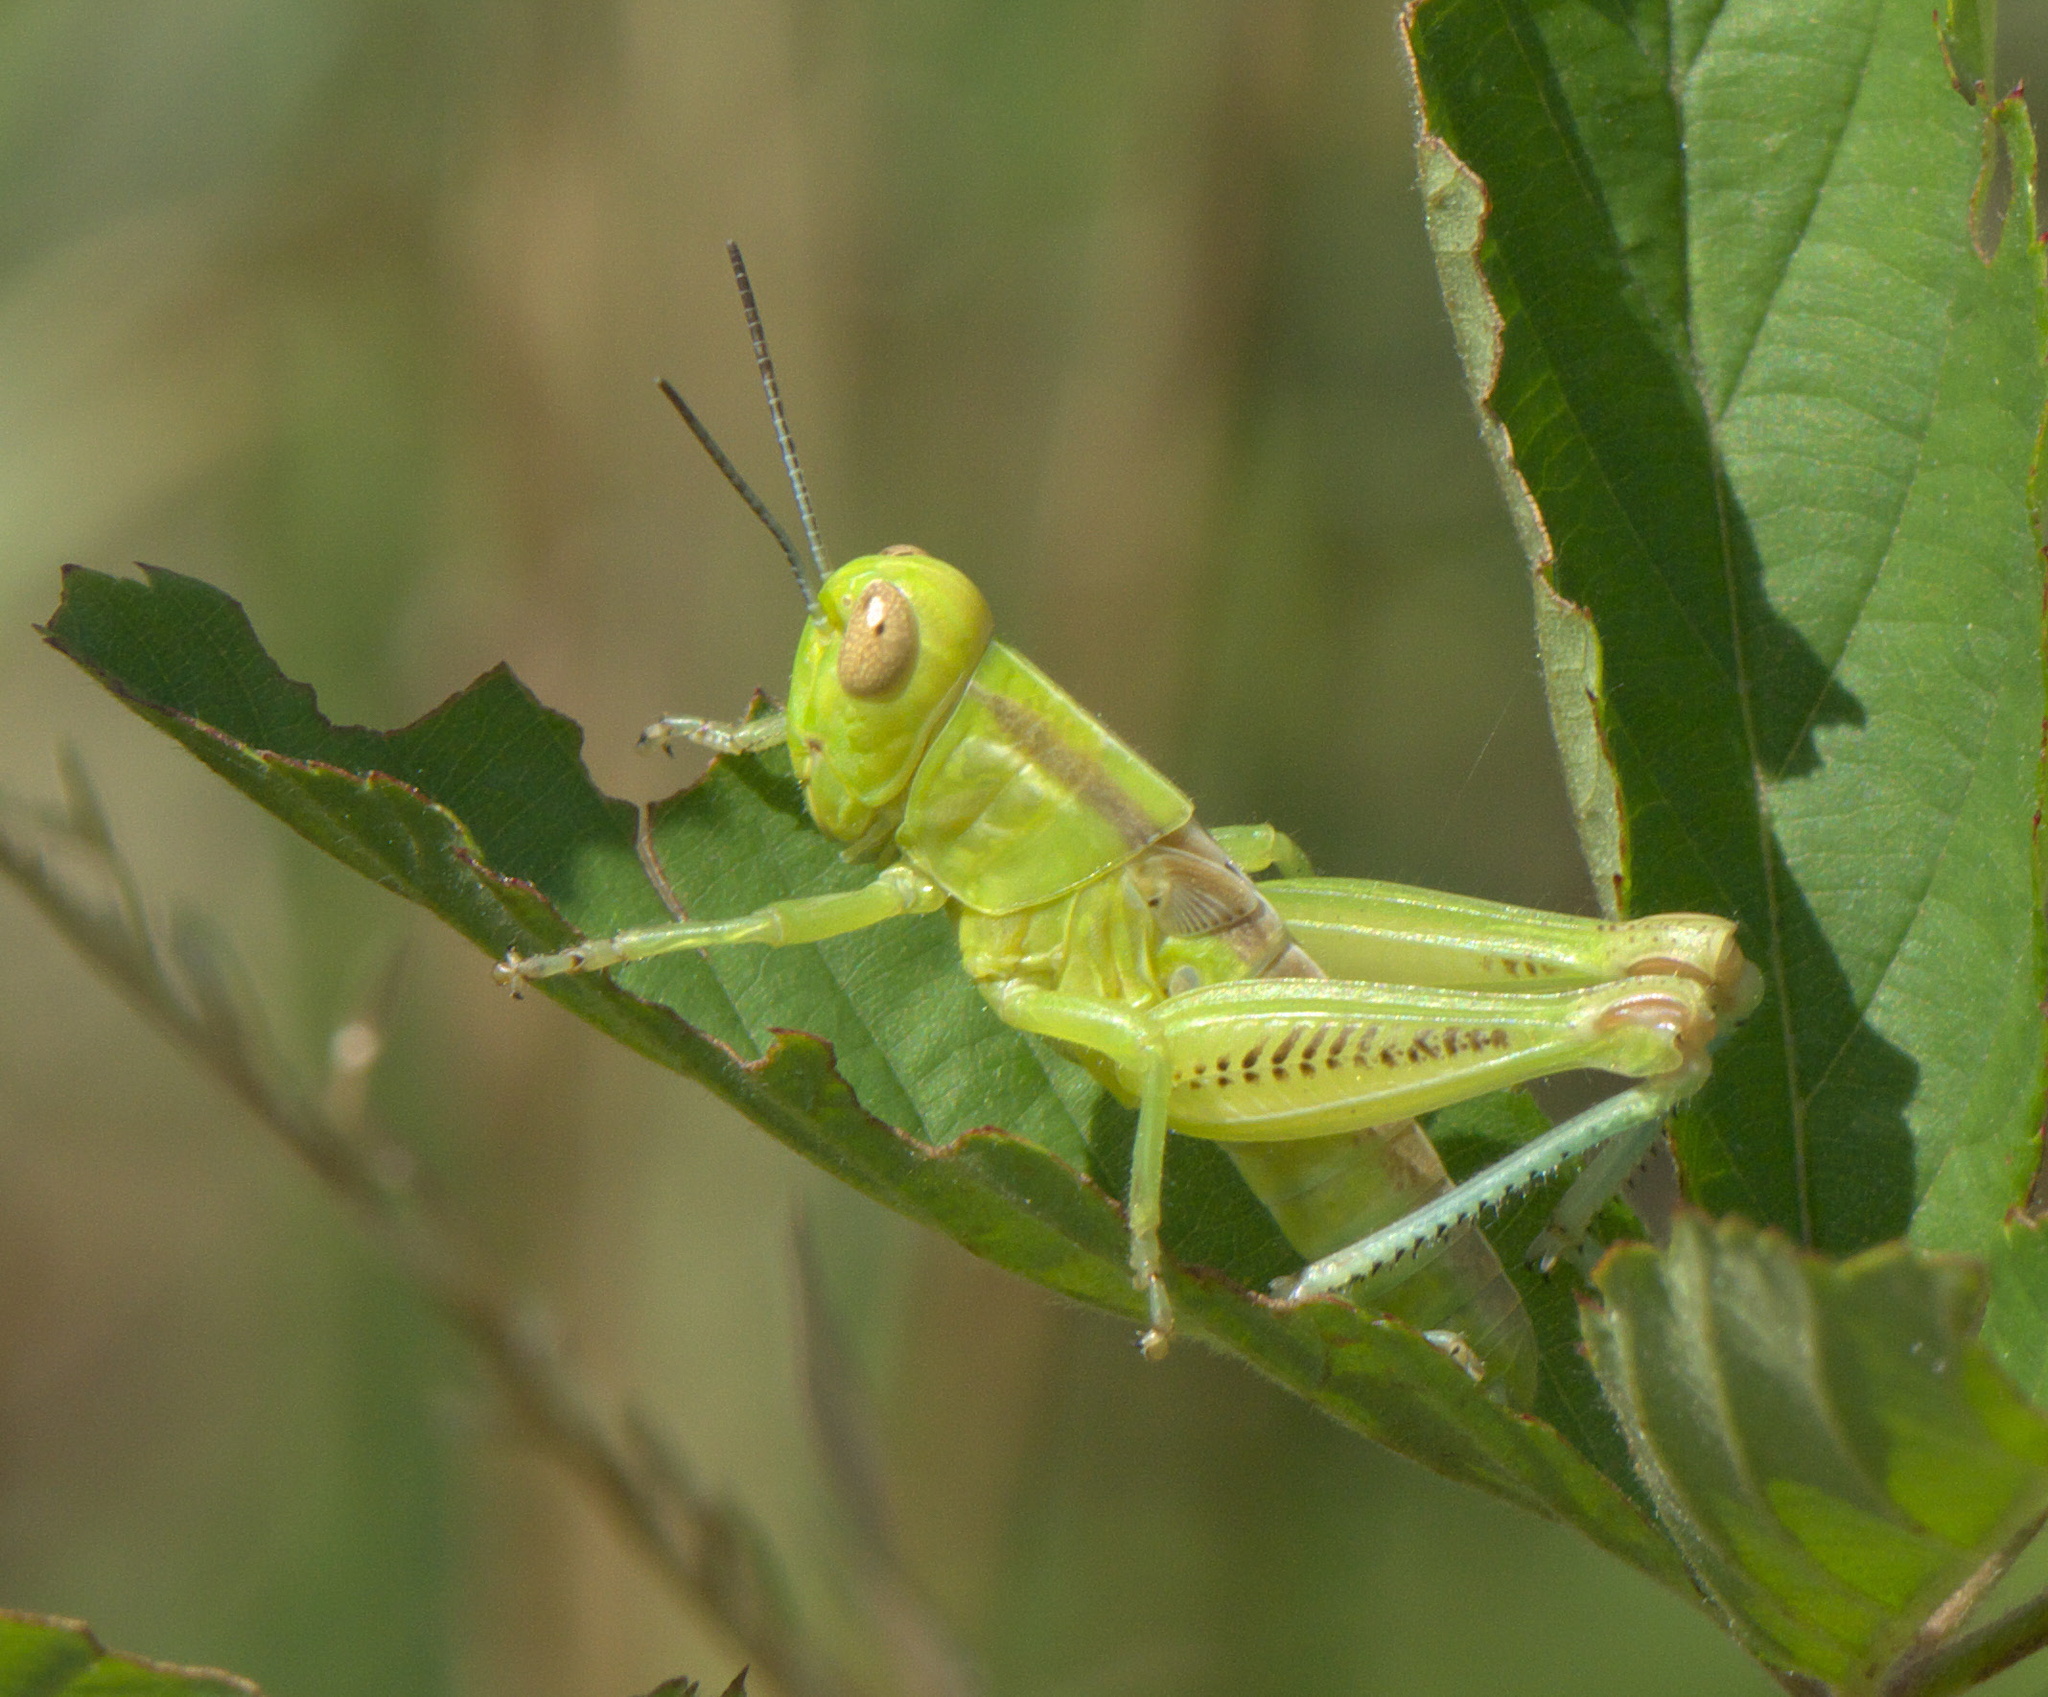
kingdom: Animalia
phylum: Arthropoda
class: Insecta
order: Orthoptera
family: Acrididae
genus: Melanoplus
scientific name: Melanoplus bivittatus
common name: Two-striped grasshopper
